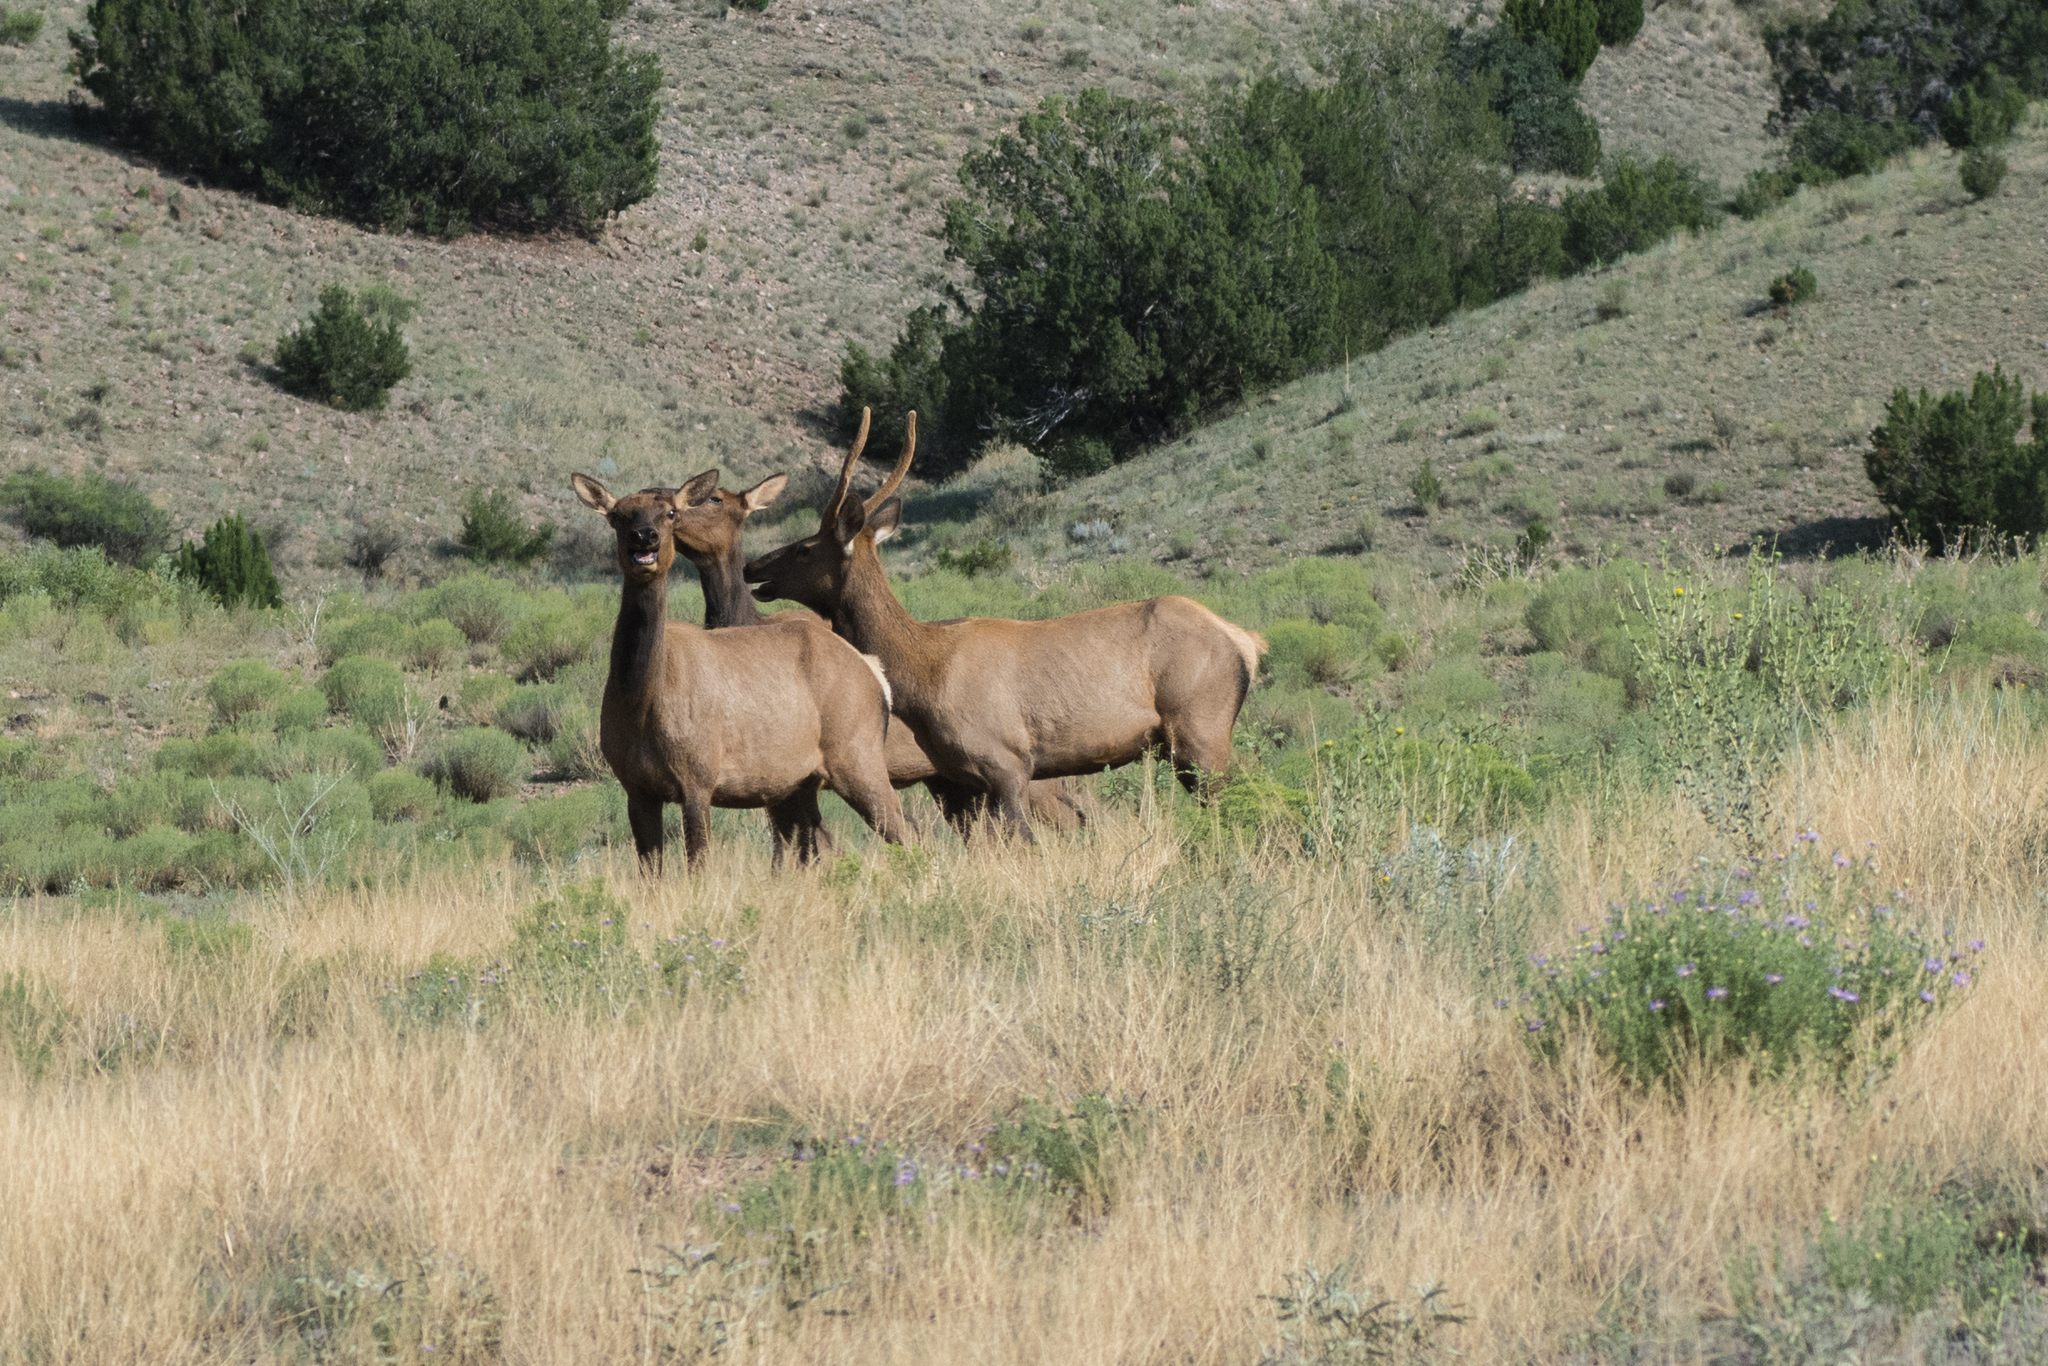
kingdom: Animalia
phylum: Chordata
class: Mammalia
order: Artiodactyla
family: Cervidae
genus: Cervus
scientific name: Cervus elaphus
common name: Red deer
